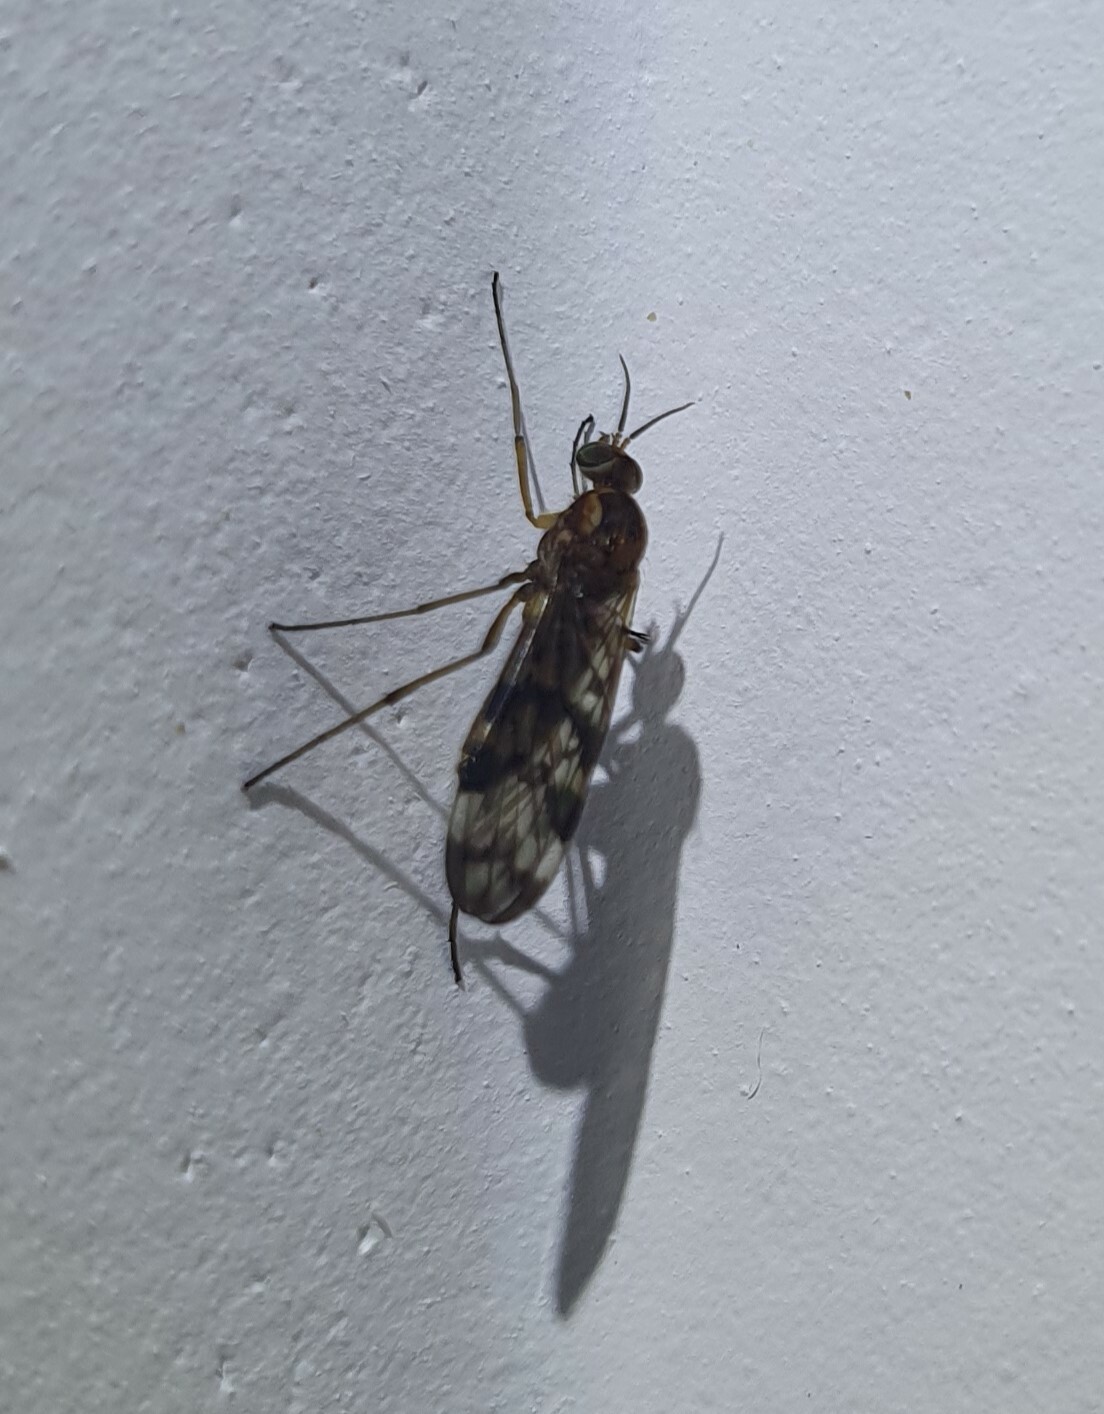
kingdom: Animalia
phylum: Arthropoda
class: Insecta
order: Diptera
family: Anisopodidae
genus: Sylvicola
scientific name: Sylvicola dubius
